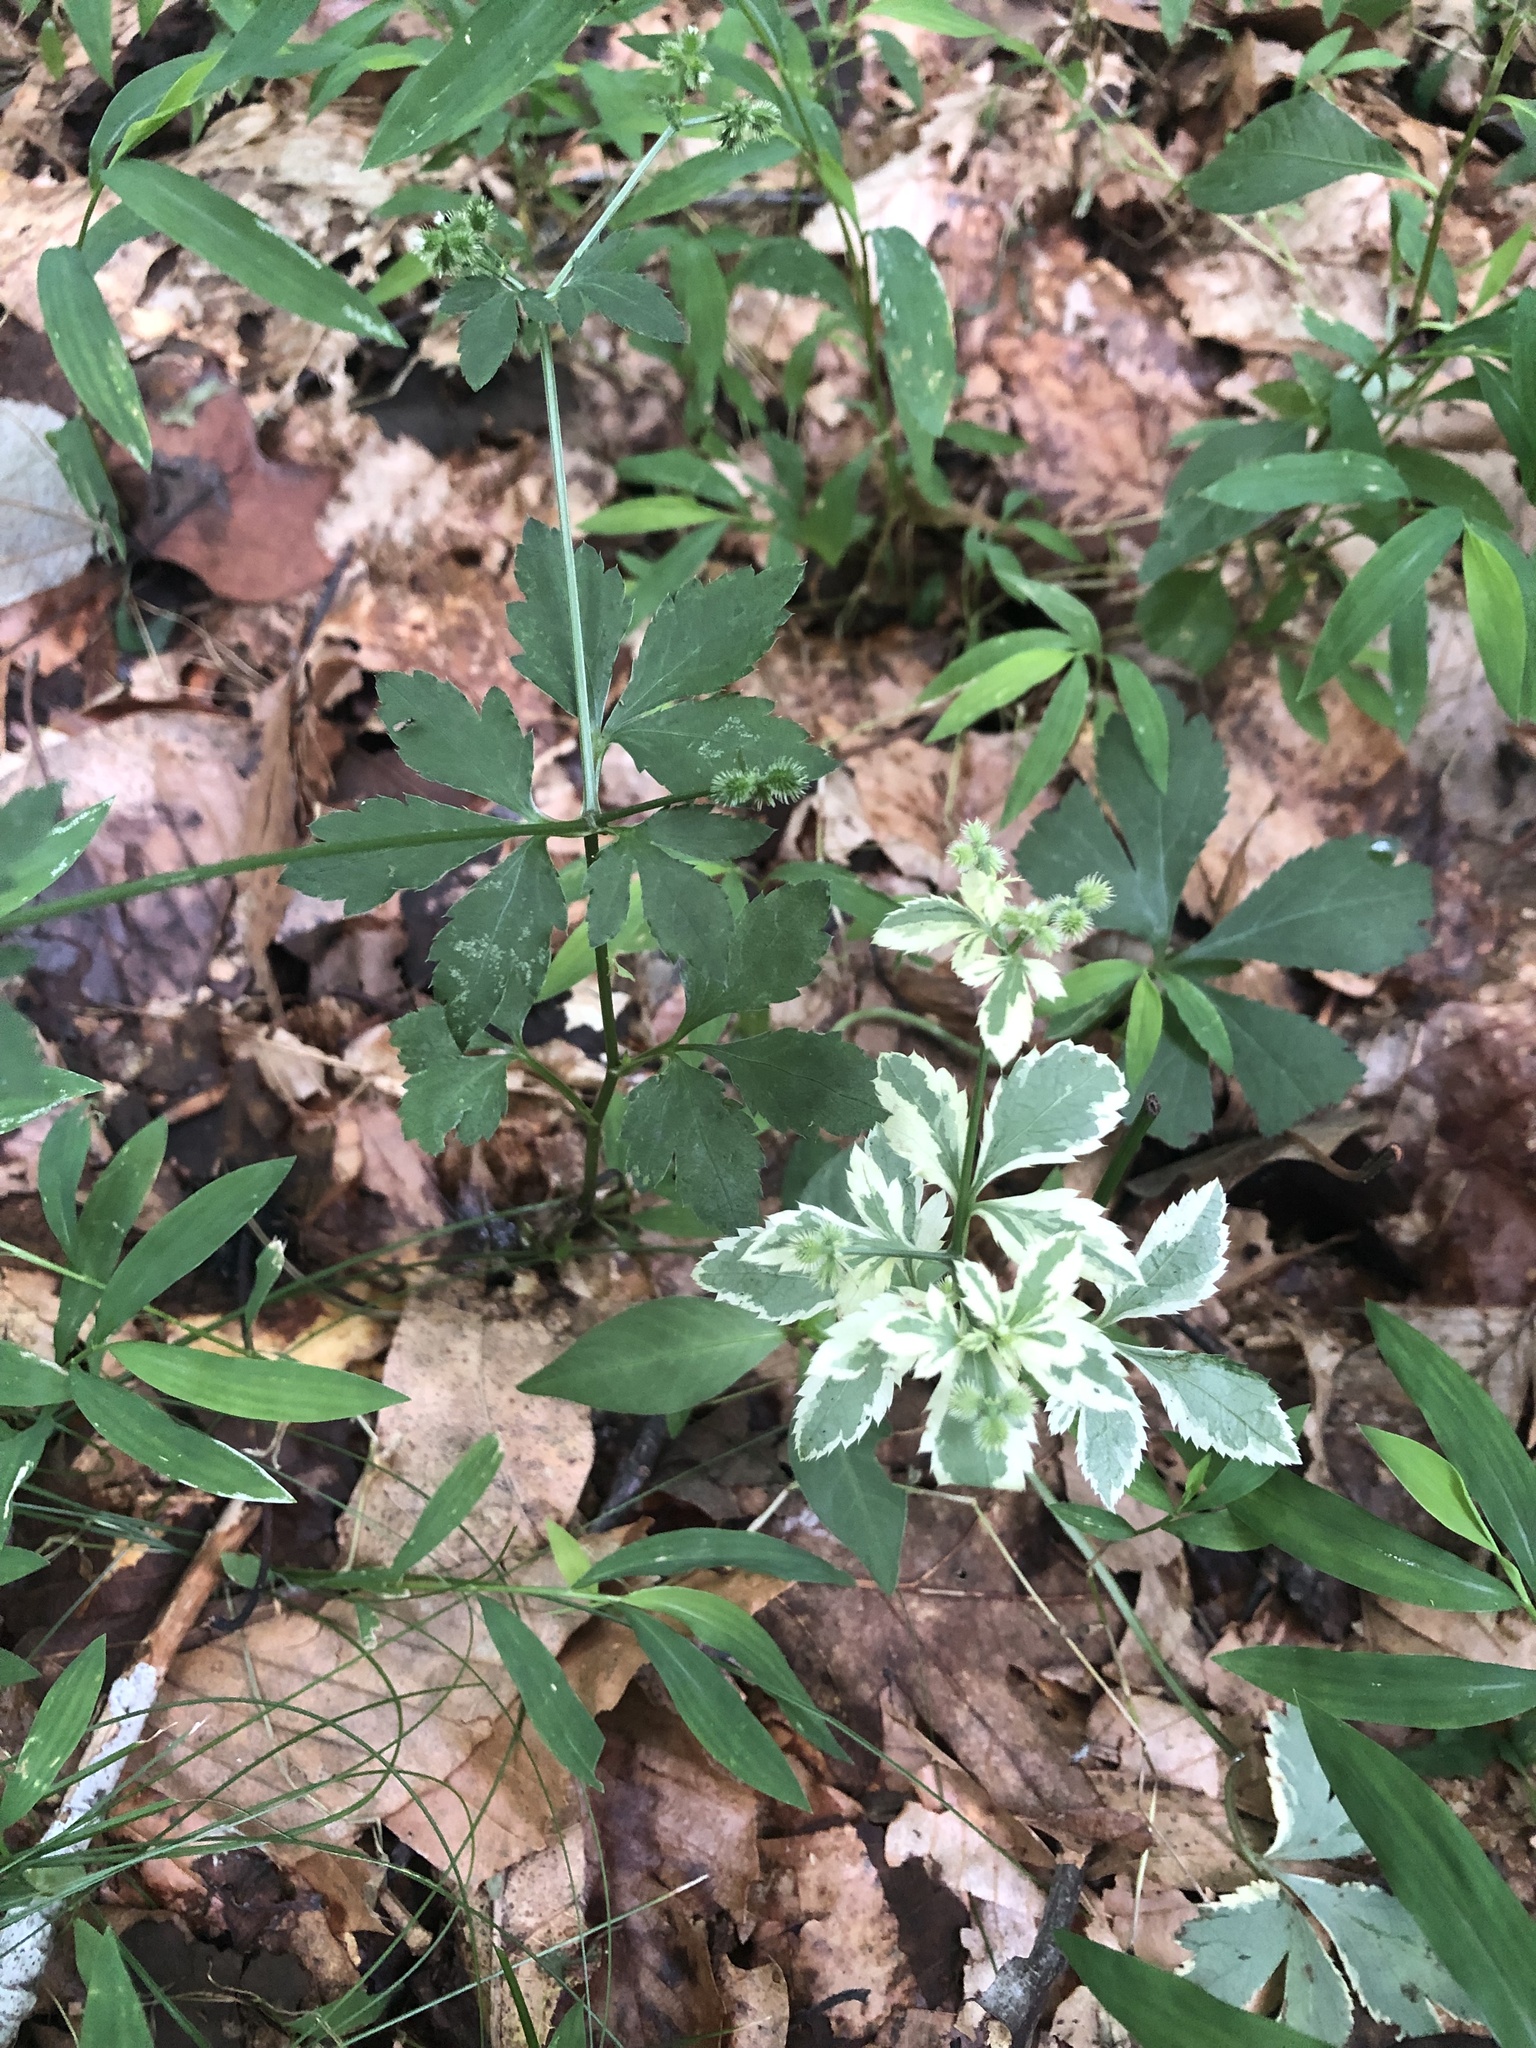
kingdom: Plantae
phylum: Tracheophyta
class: Magnoliopsida
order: Apiales
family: Apiaceae
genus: Sanicula
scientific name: Sanicula canadensis
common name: Canada sanicle
